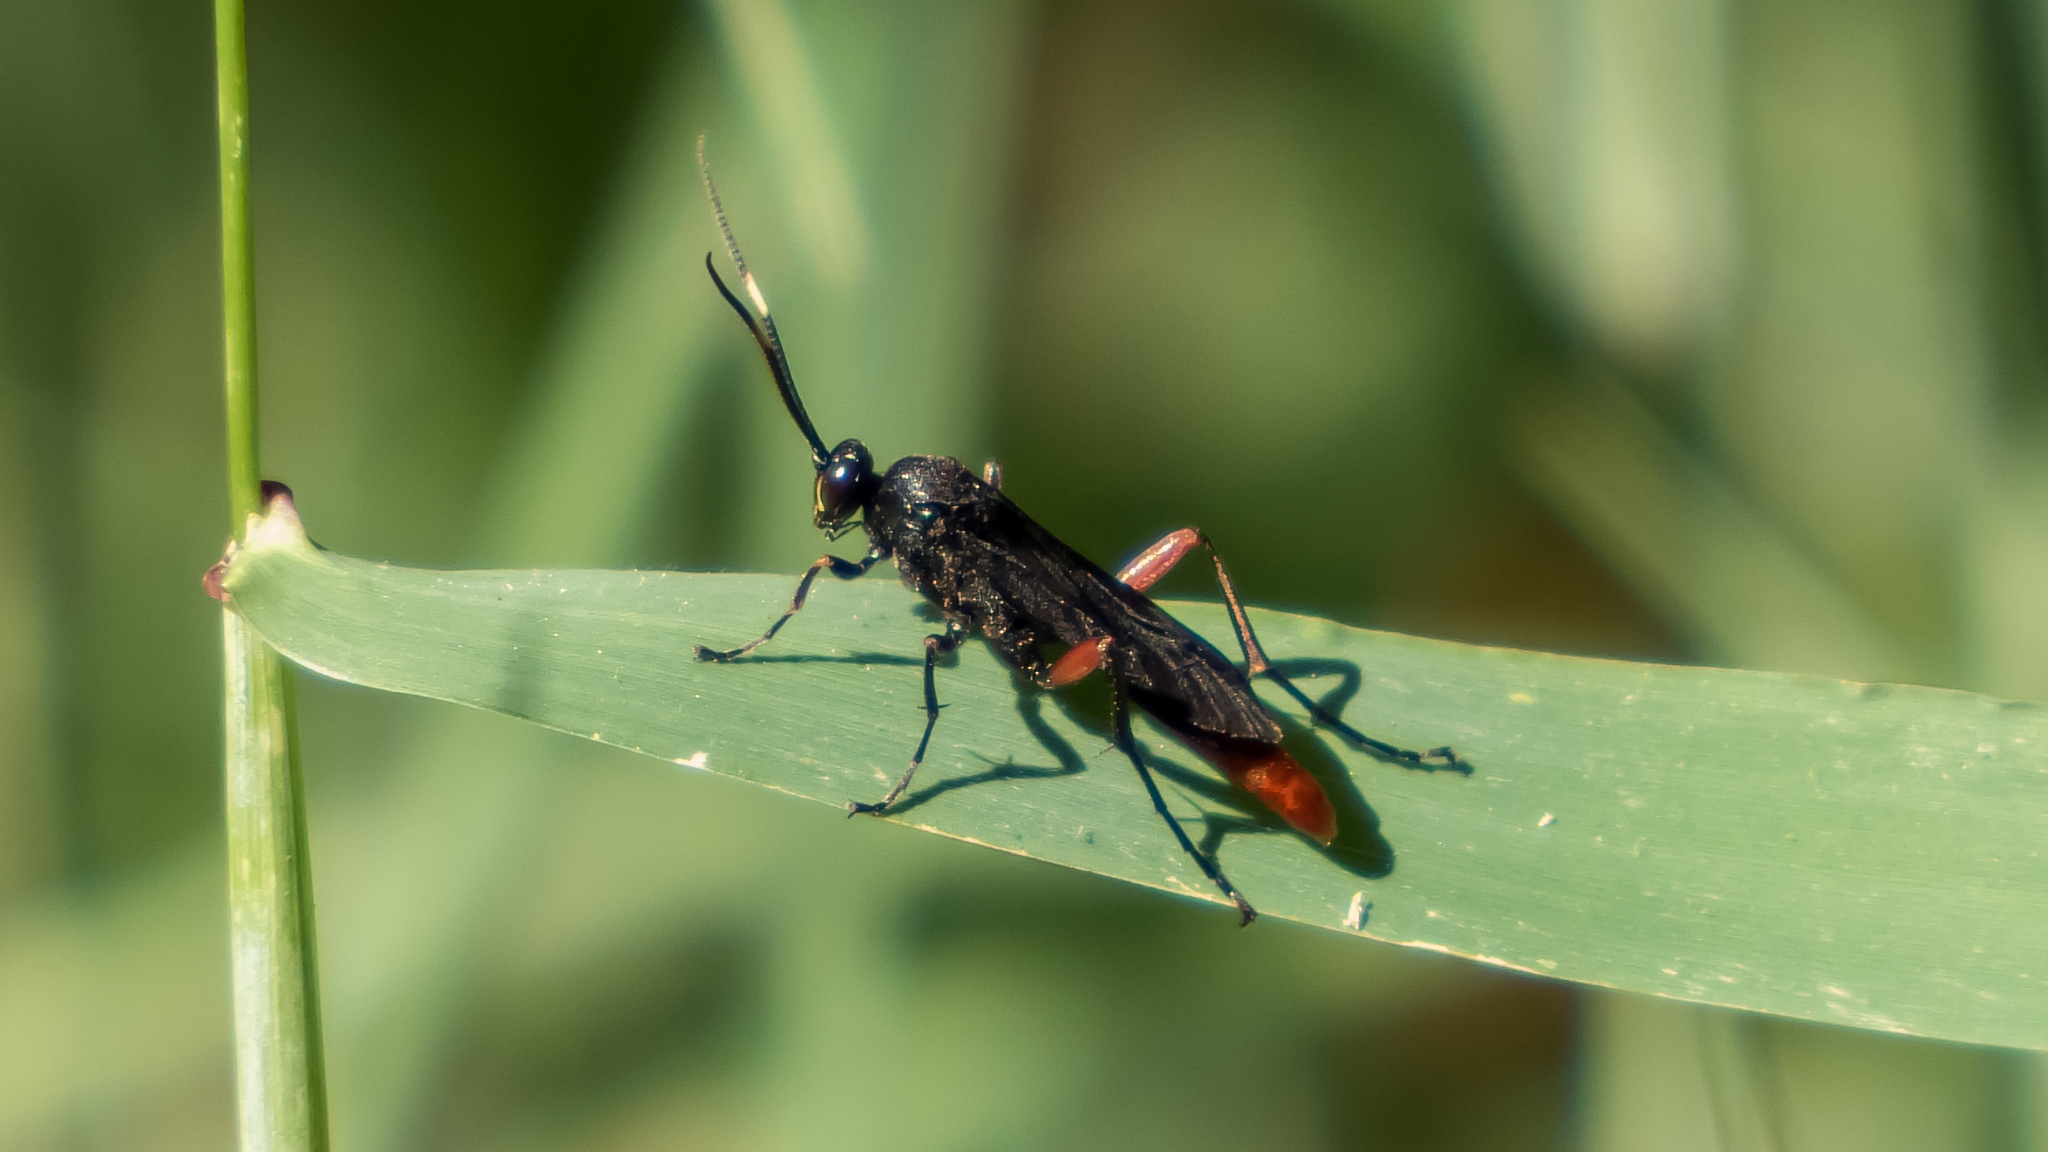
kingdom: Animalia
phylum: Arthropoda
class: Insecta
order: Hymenoptera
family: Ichneumonidae
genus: Limonethe
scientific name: Limonethe maurator
